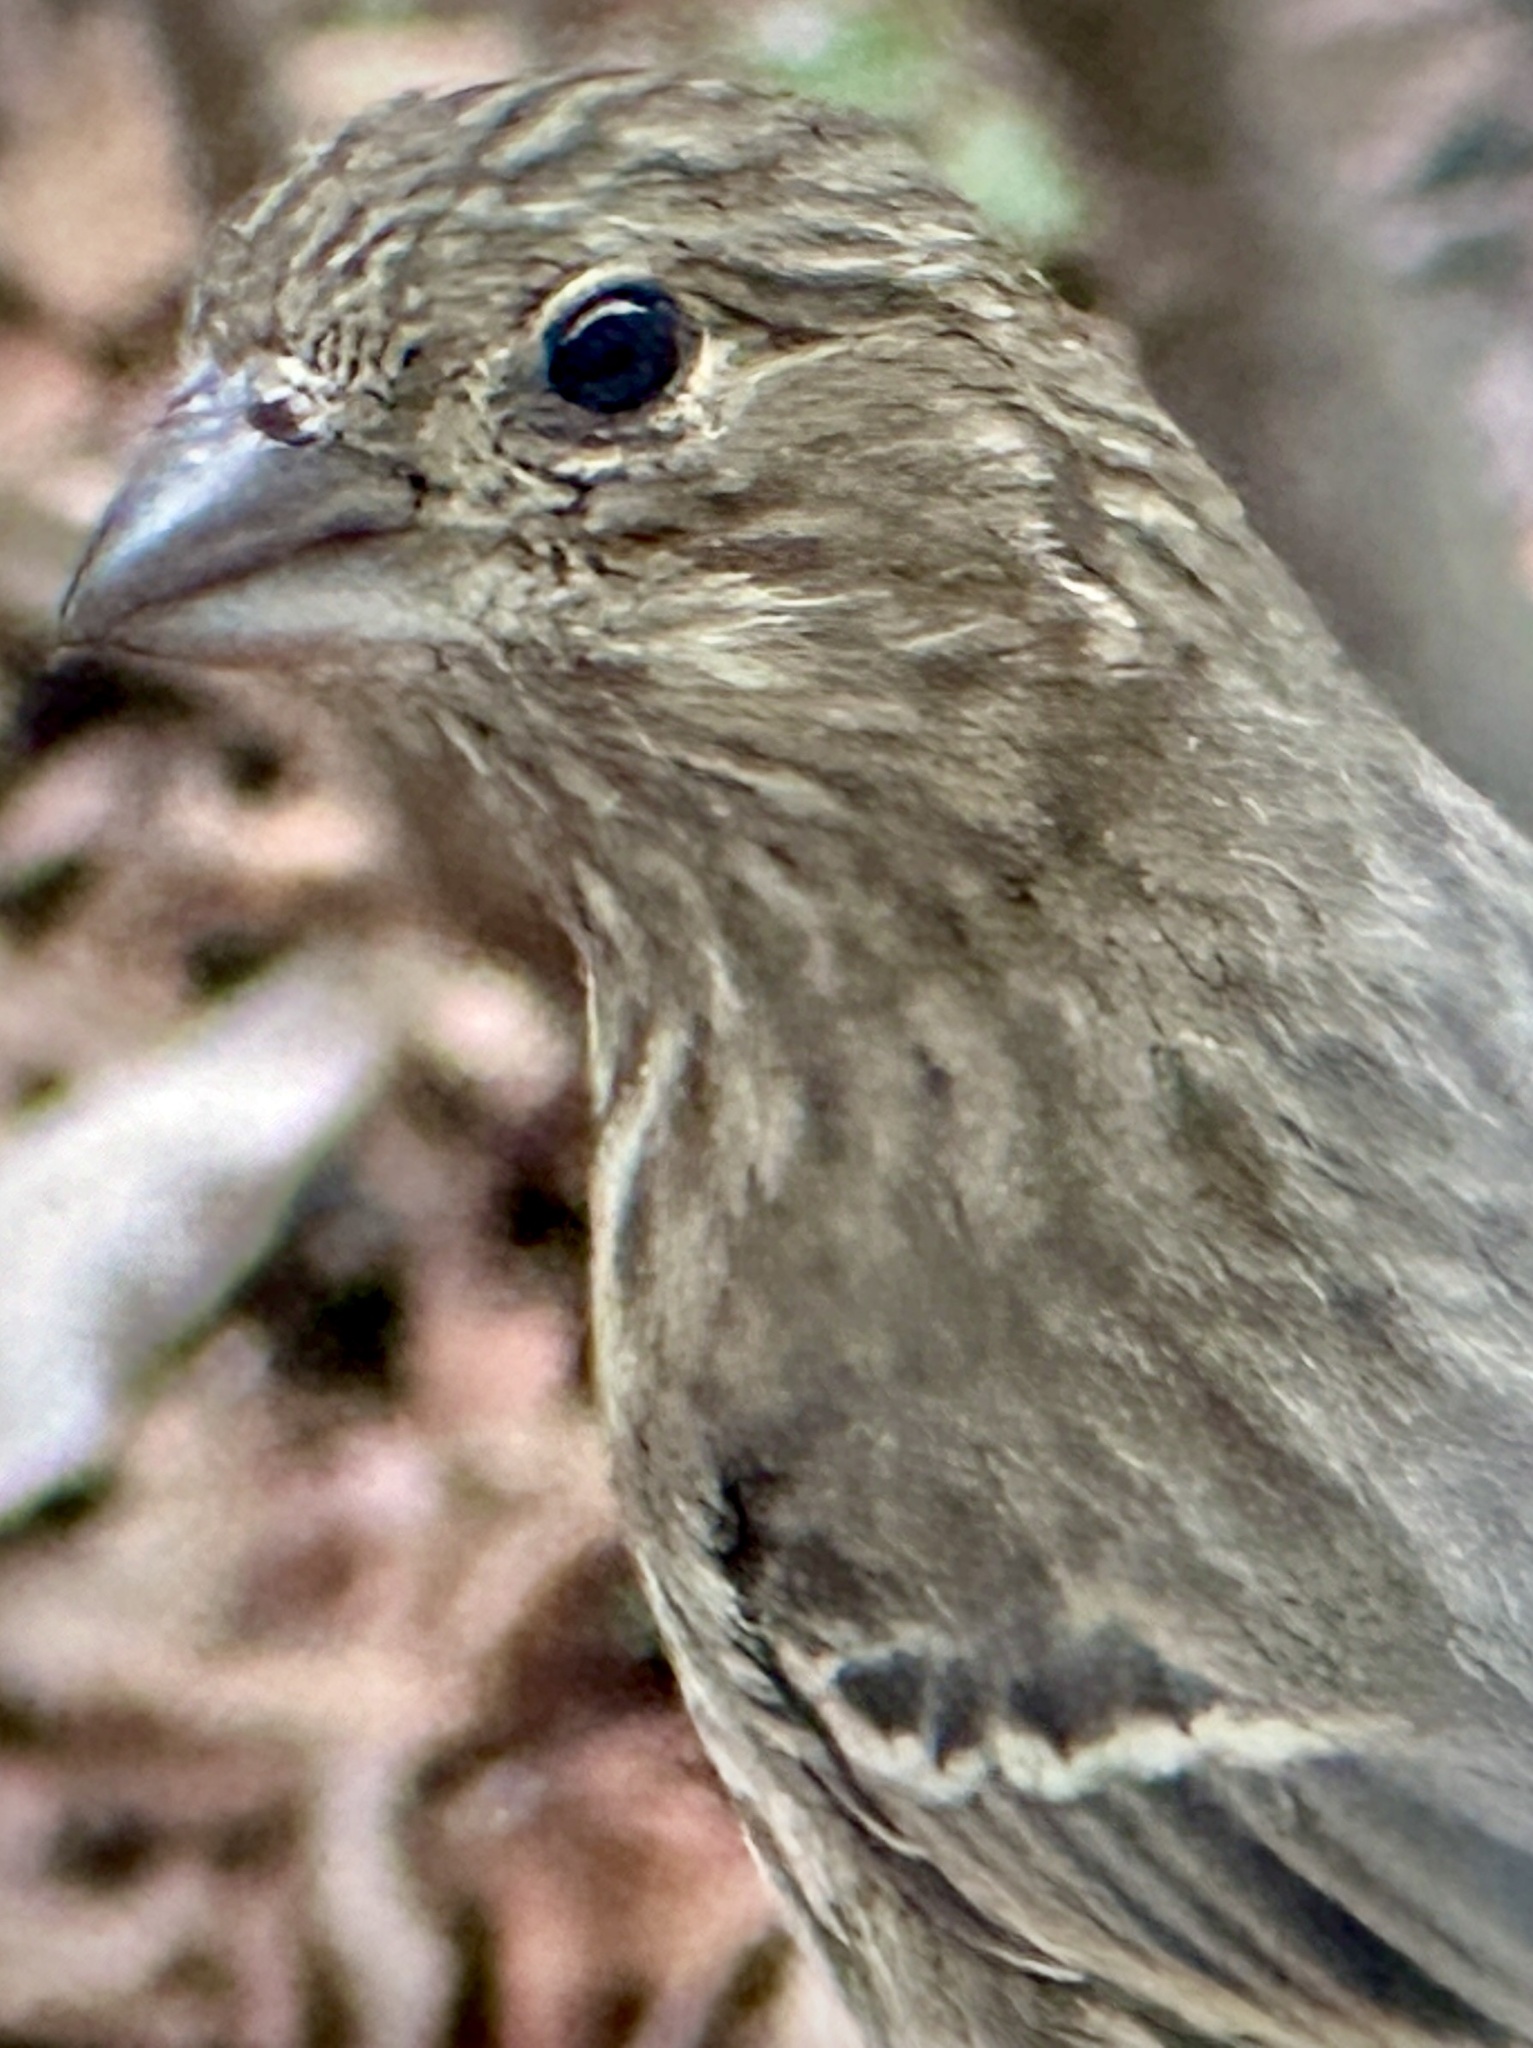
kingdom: Animalia
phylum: Chordata
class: Aves
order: Passeriformes
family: Fringillidae
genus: Haemorhous
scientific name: Haemorhous mexicanus
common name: House finch
